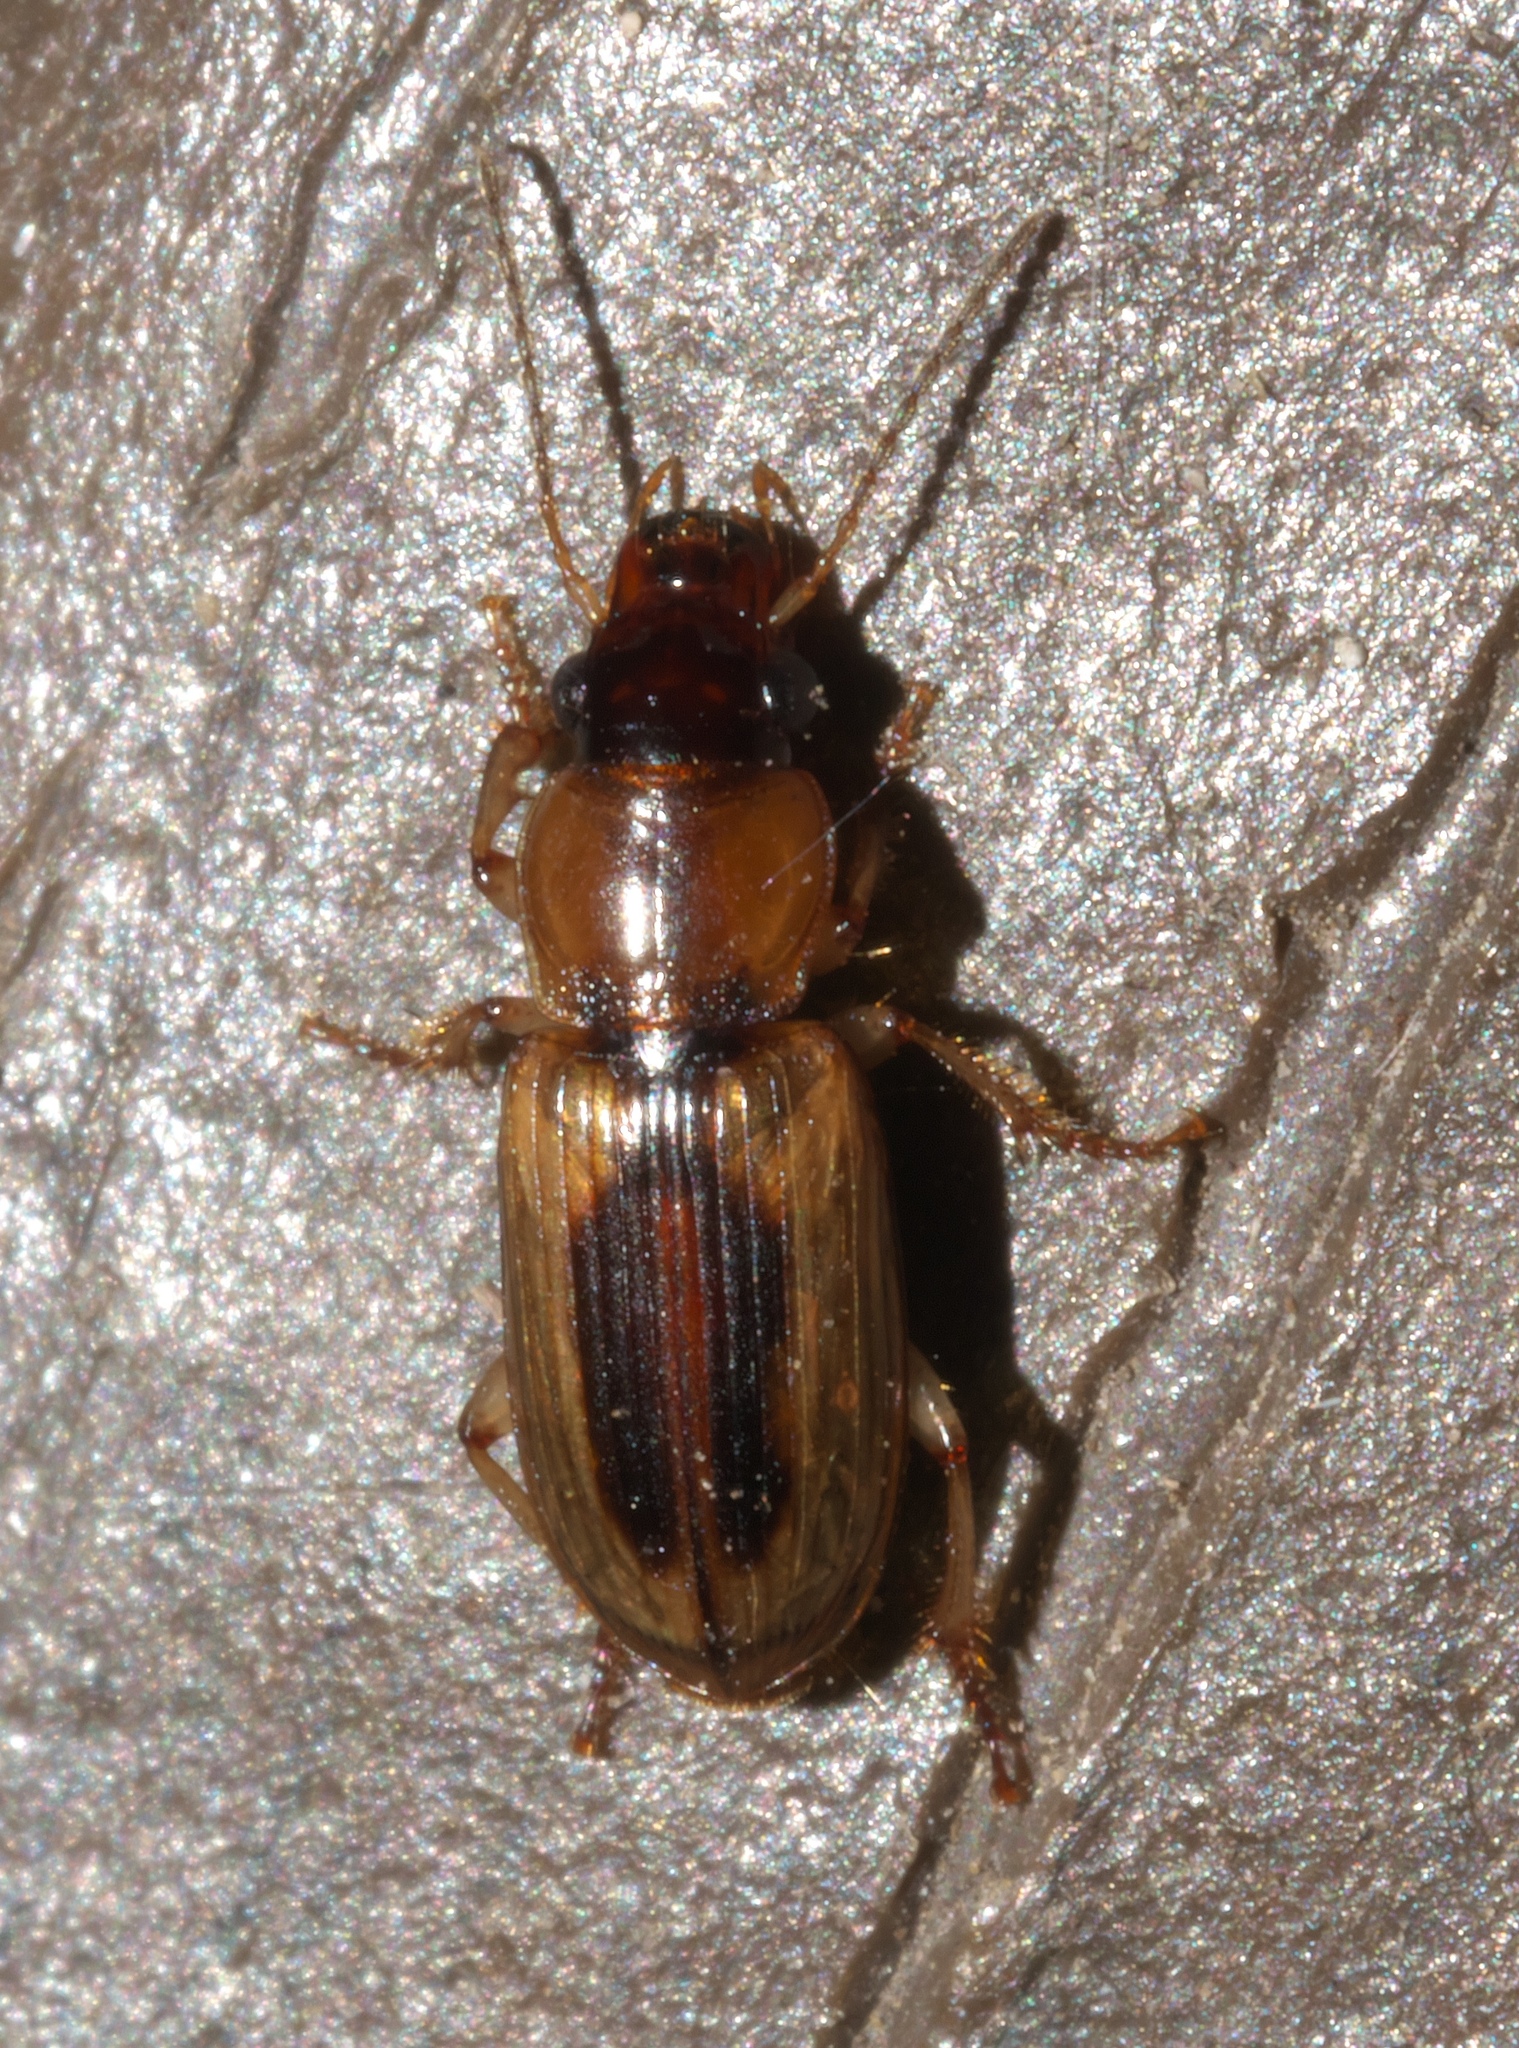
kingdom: Animalia
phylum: Arthropoda
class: Insecta
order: Coleoptera
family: Carabidae
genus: Stenolophus
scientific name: Stenolophus lecontei
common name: Leconte's seedcorn beetle
